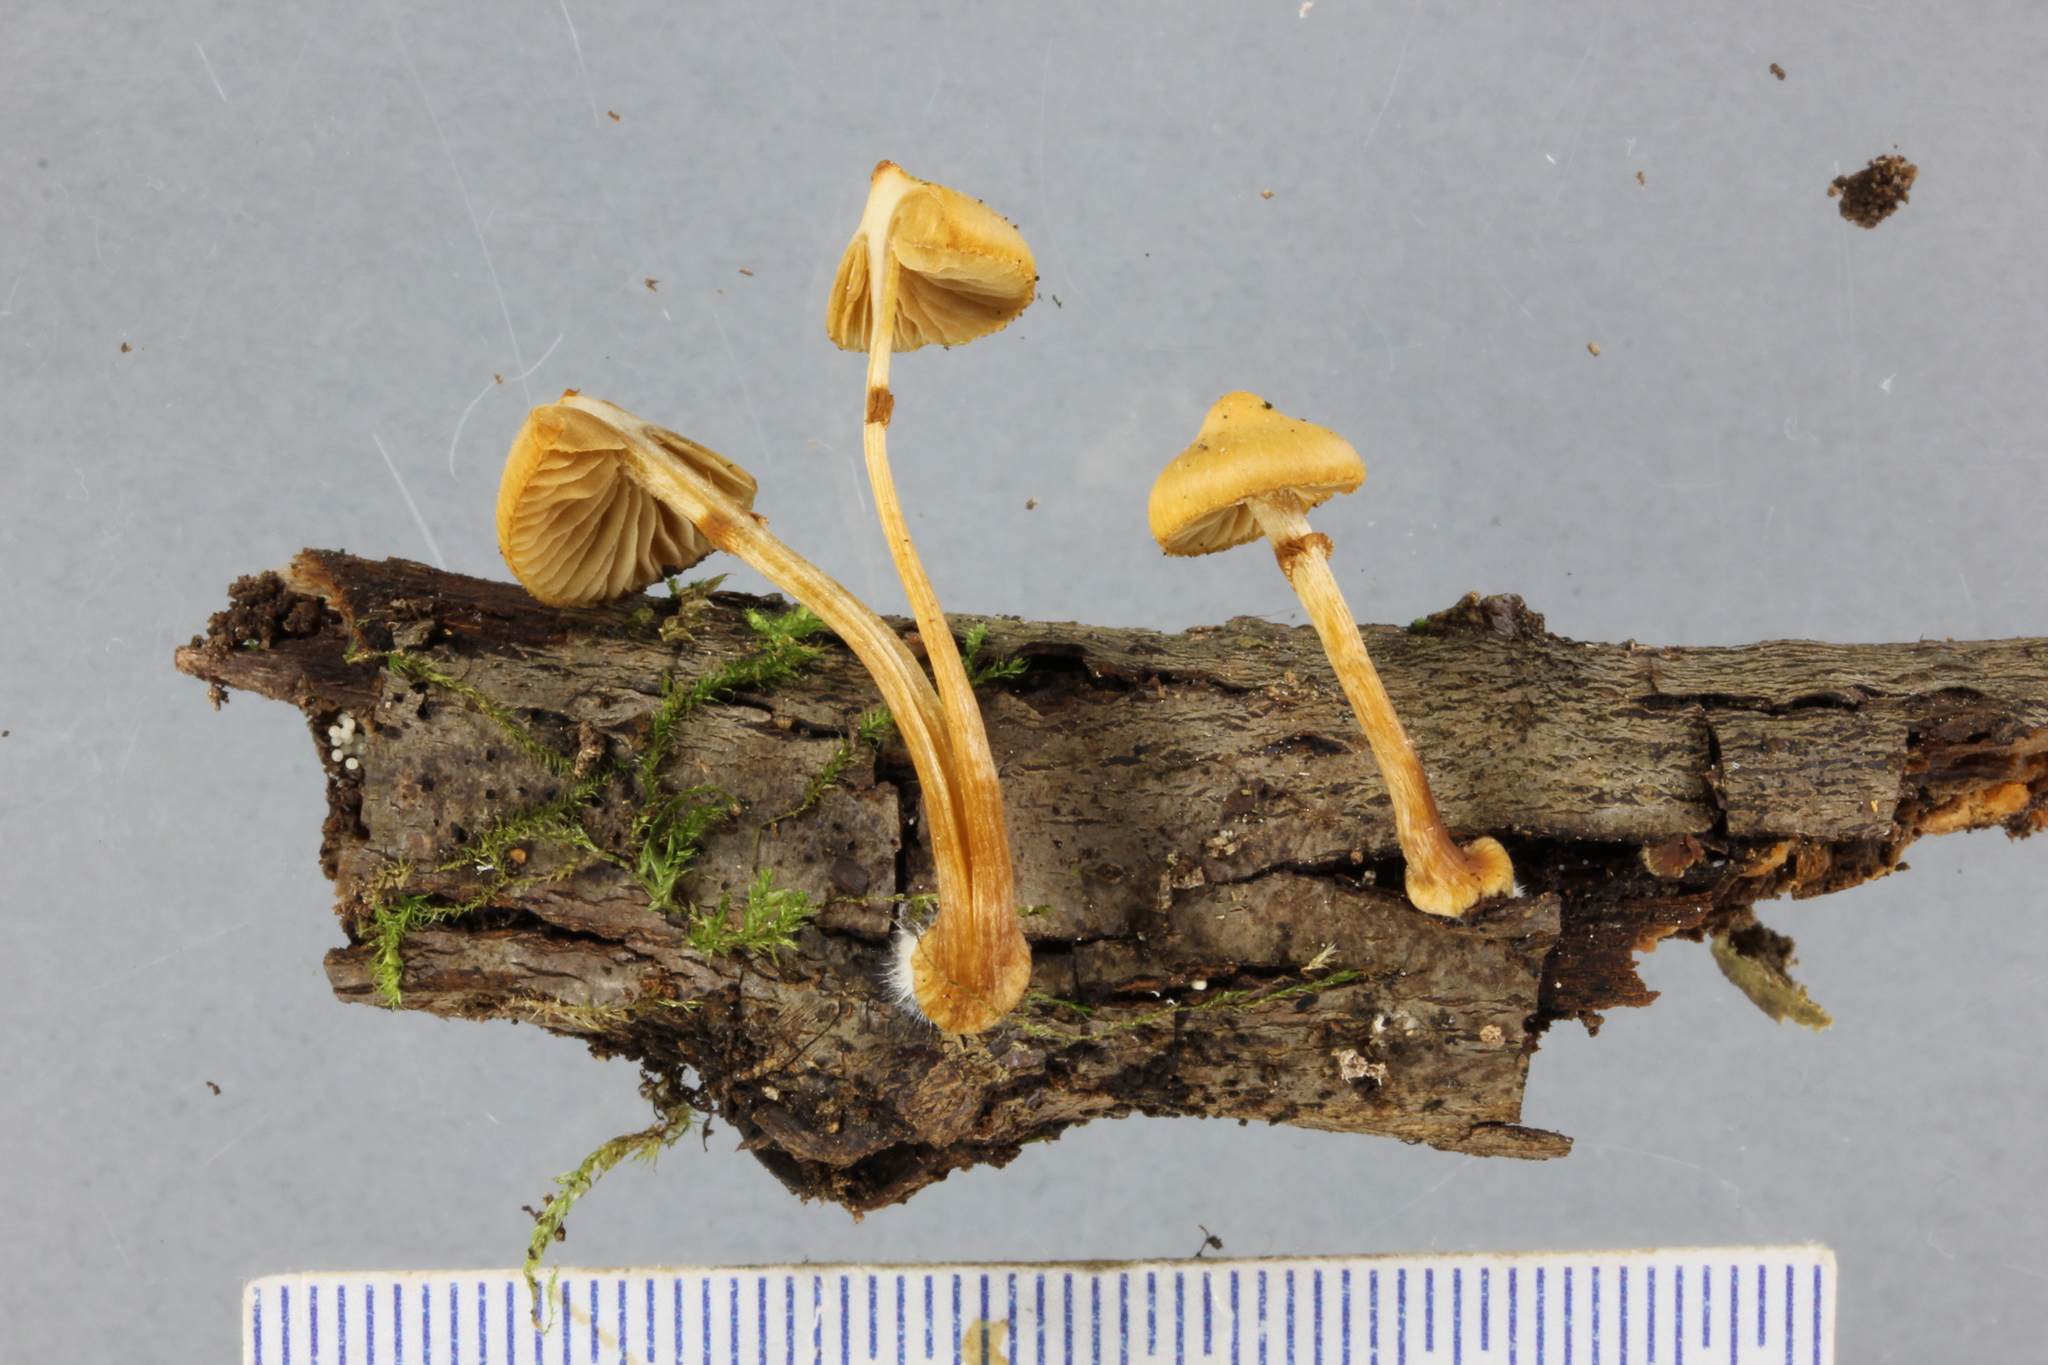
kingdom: Fungi
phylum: Basidiomycota
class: Agaricomycetes
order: Agaricales
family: Hymenogastraceae
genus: Galerina
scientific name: Galerina patagonica
